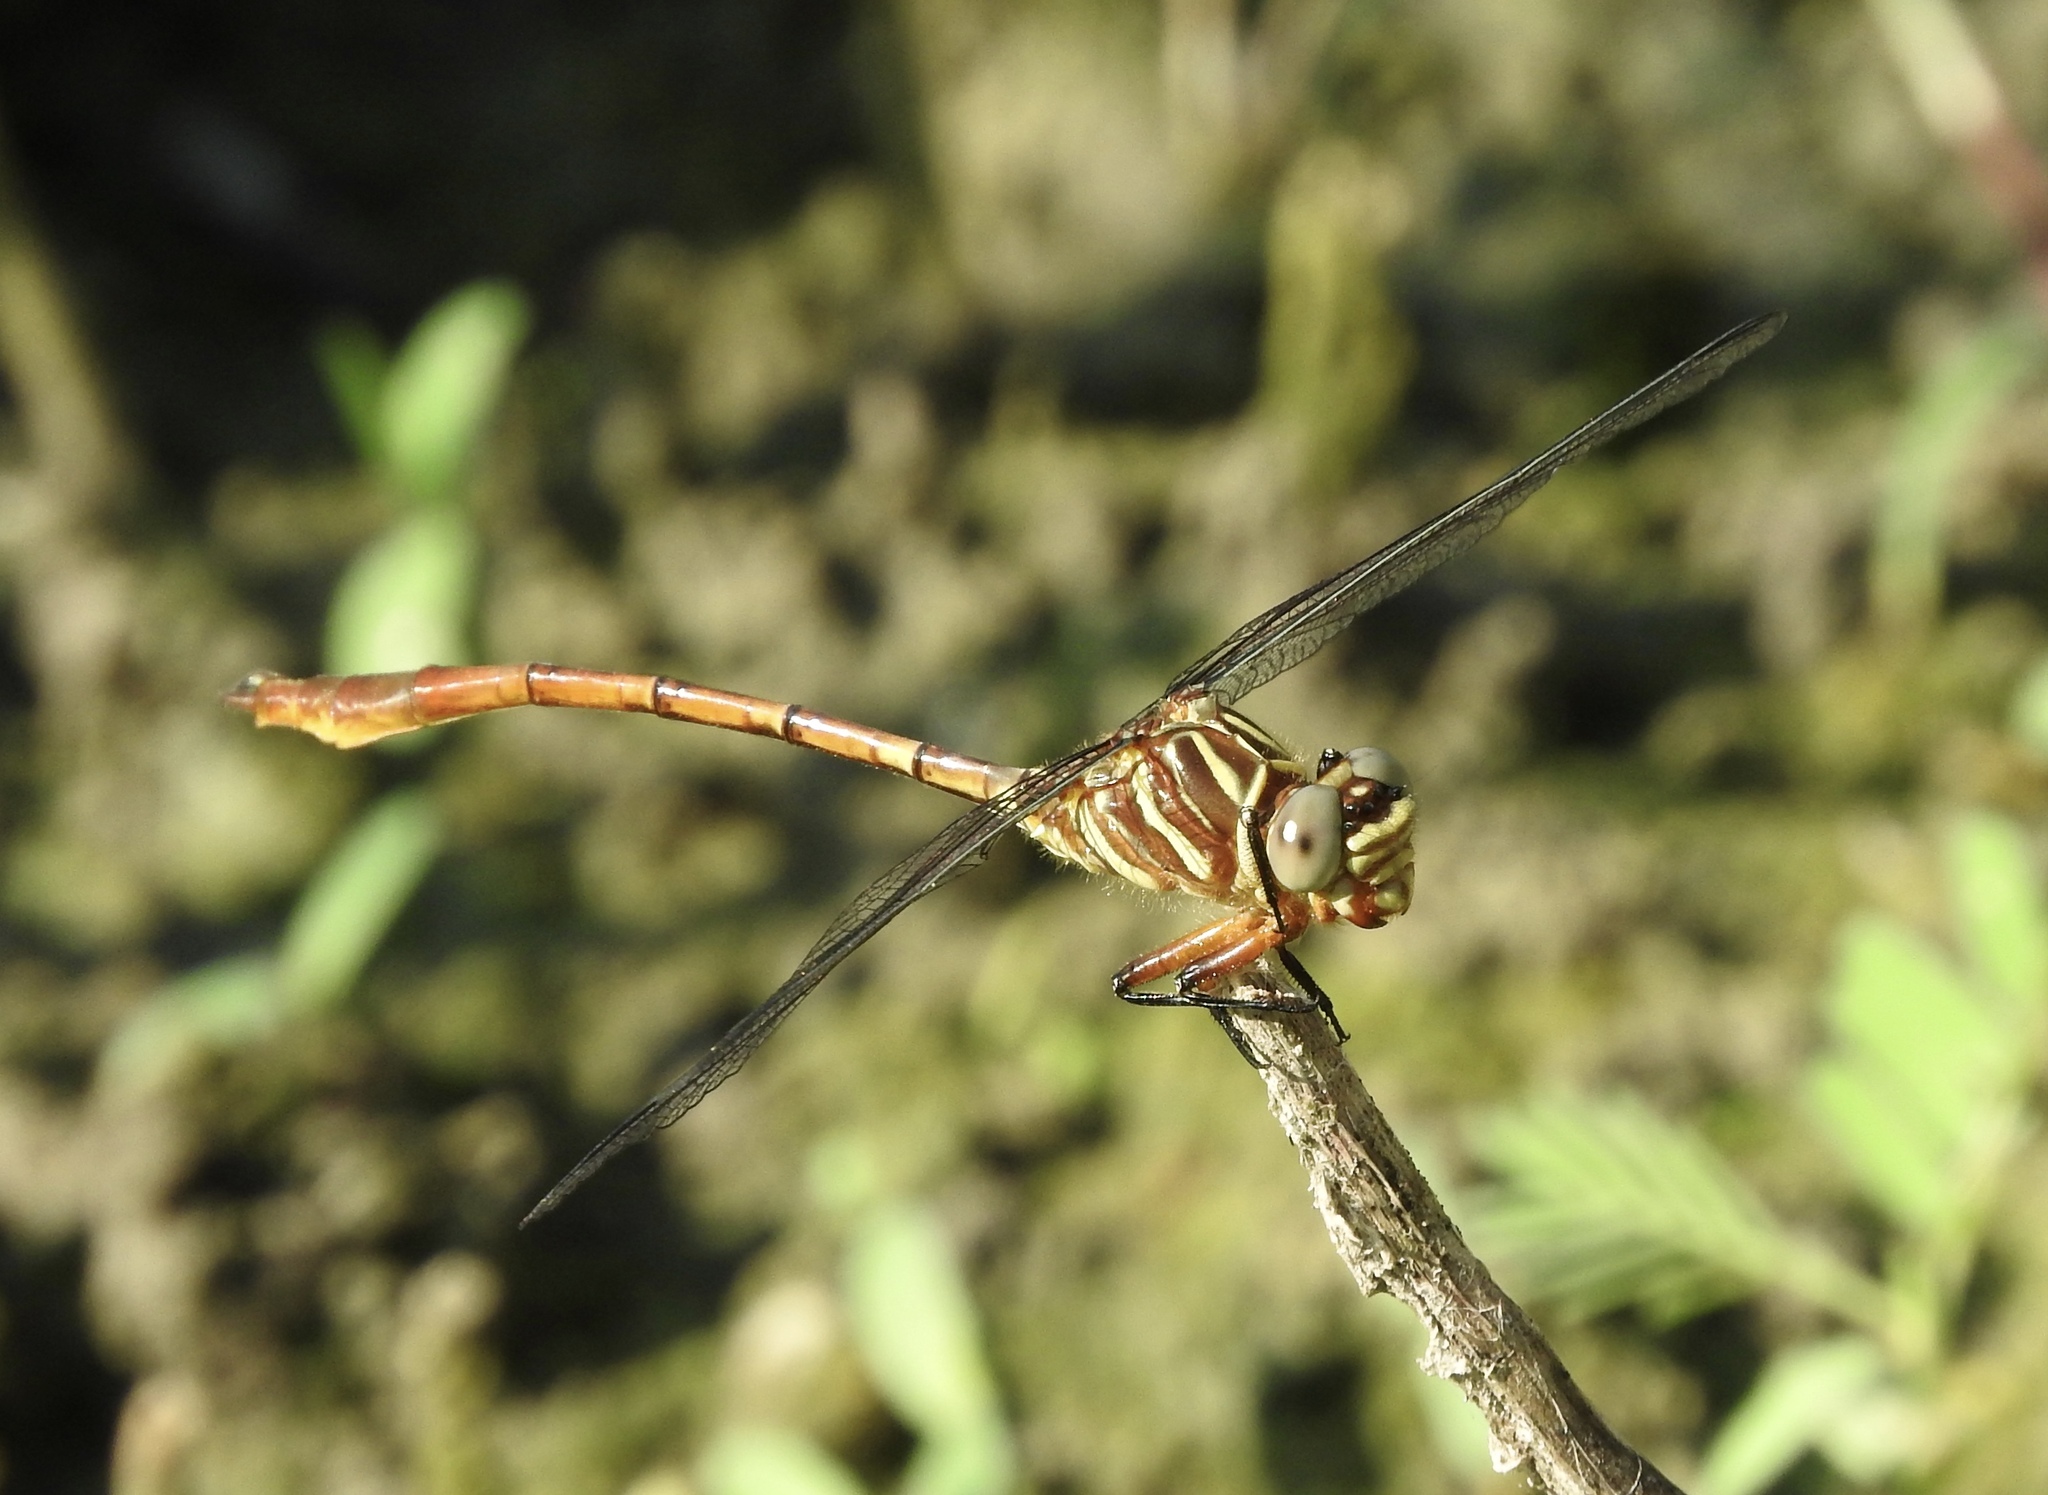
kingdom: Animalia
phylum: Arthropoda
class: Insecta
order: Odonata
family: Gomphidae
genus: Aphylla
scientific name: Aphylla angustifolia
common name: Broad-striped forceptail
